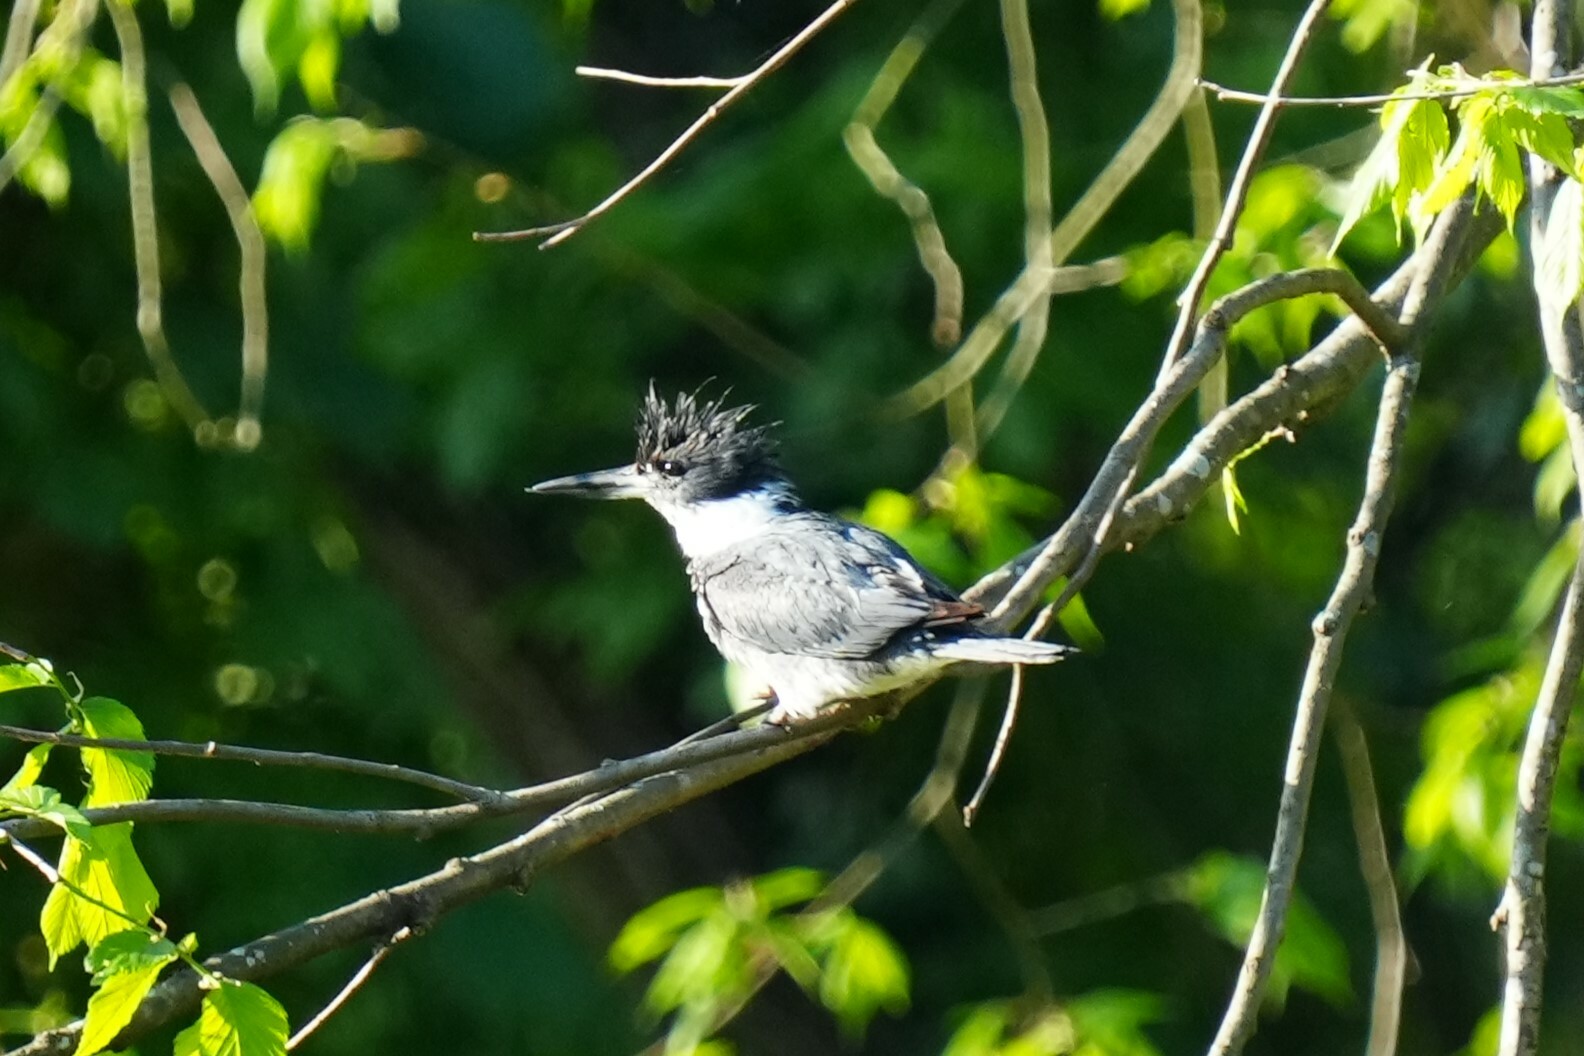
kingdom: Animalia
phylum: Chordata
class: Aves
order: Coraciiformes
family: Alcedinidae
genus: Megaceryle
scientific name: Megaceryle alcyon
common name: Belted kingfisher
